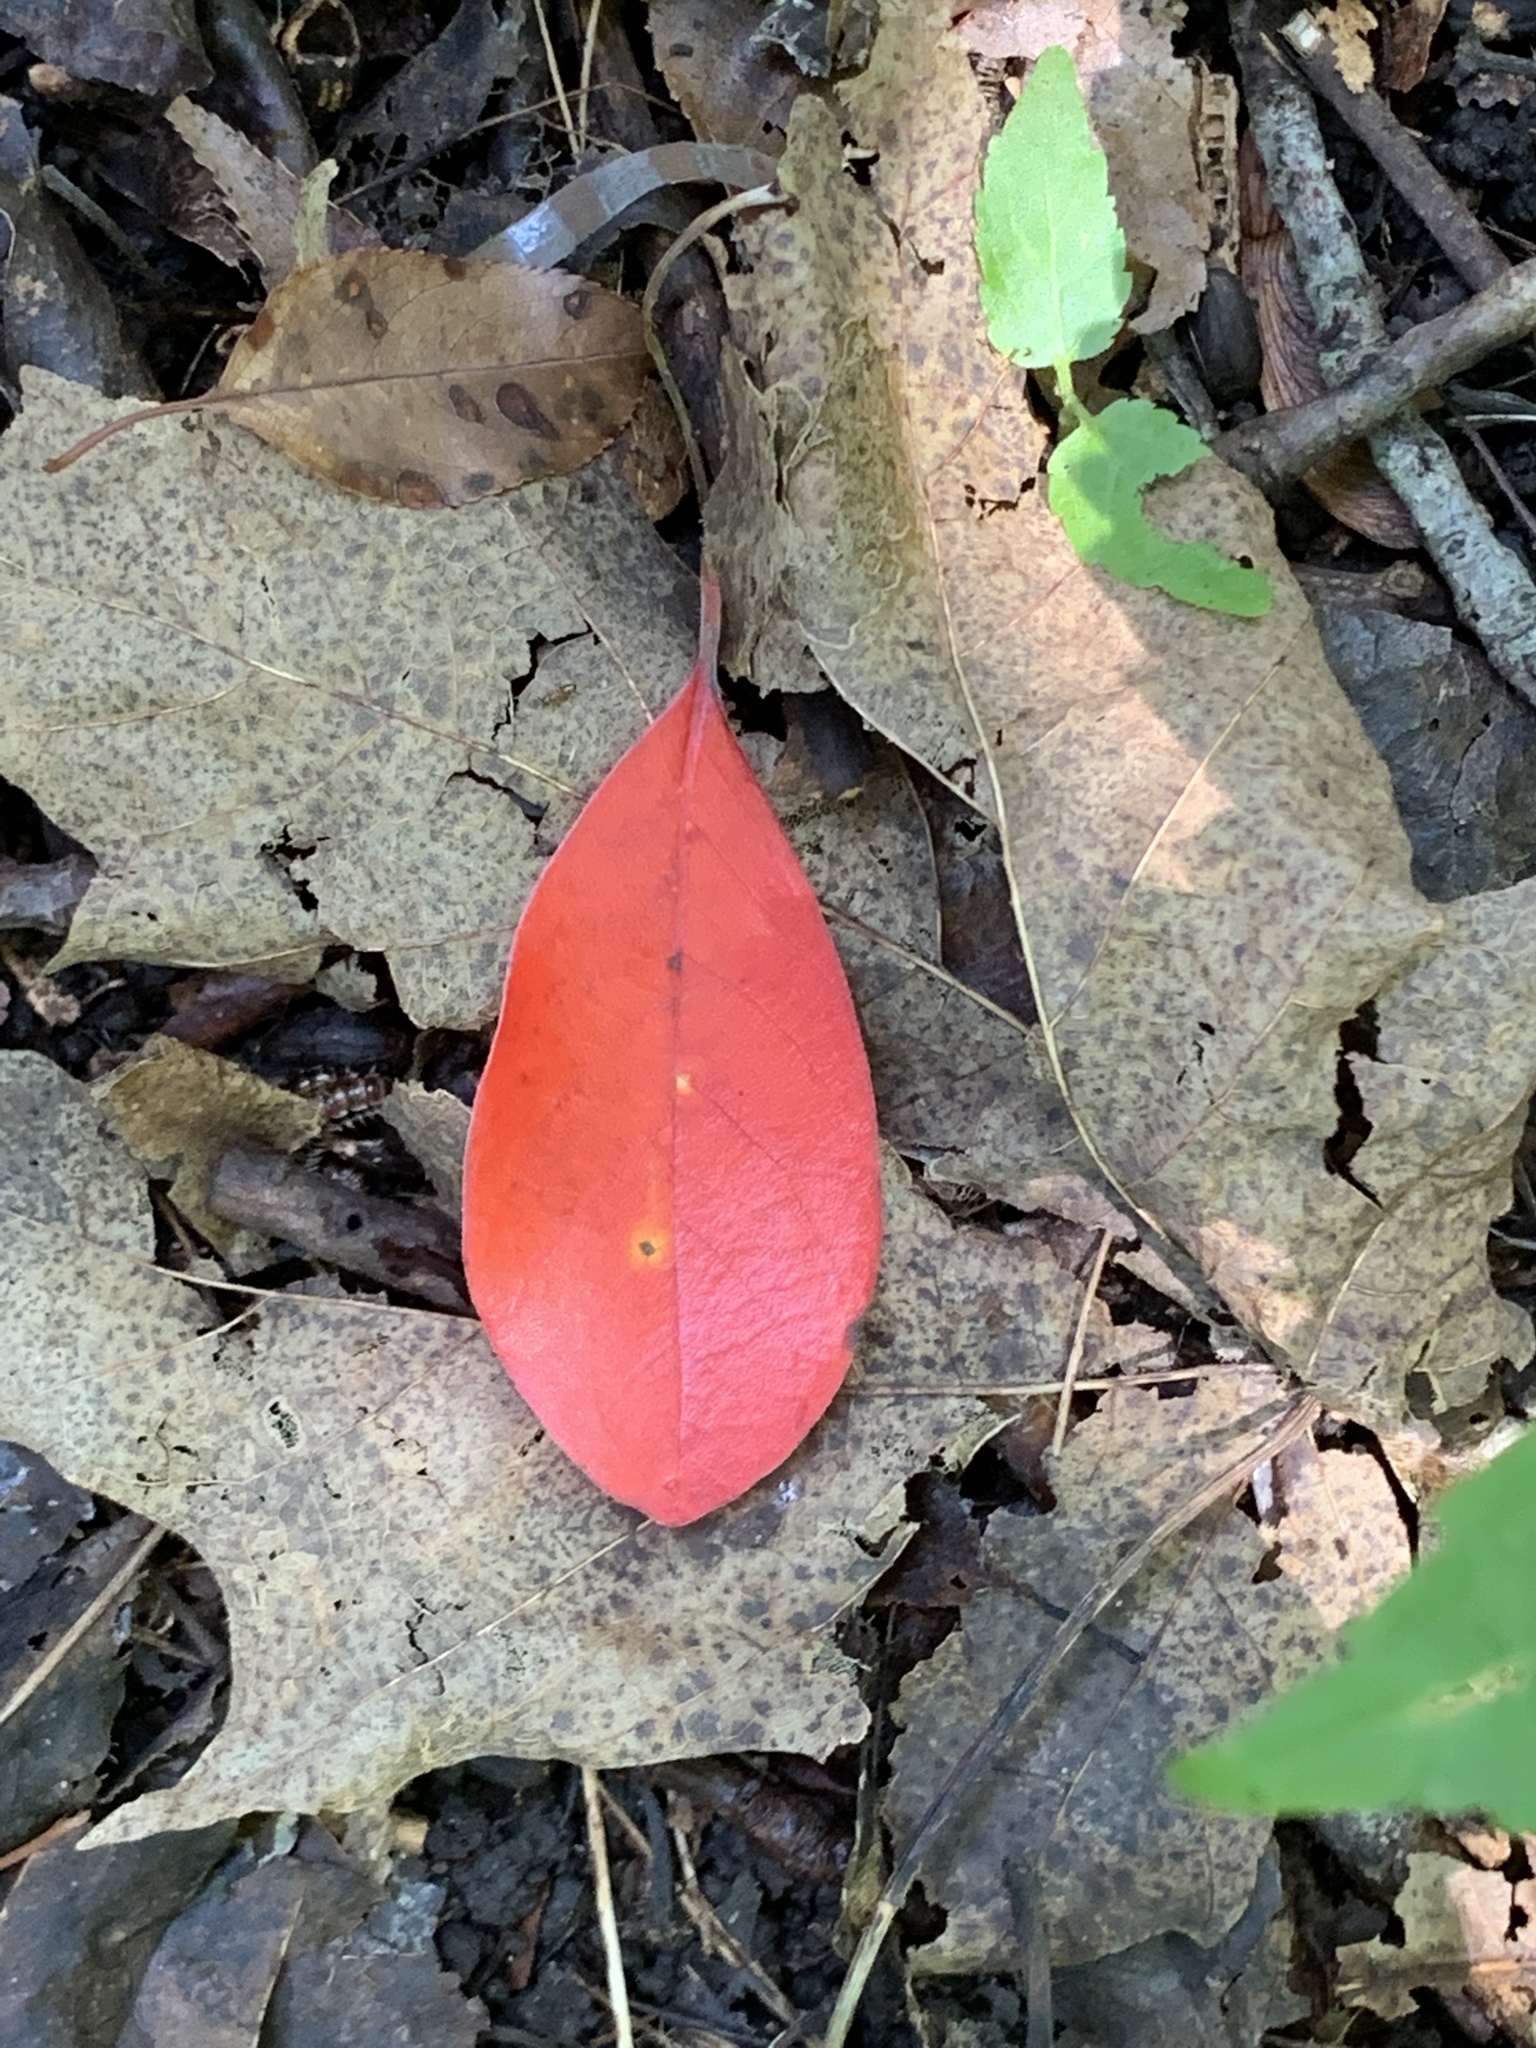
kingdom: Plantae
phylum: Tracheophyta
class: Magnoliopsida
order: Cornales
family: Nyssaceae
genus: Nyssa
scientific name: Nyssa sylvatica
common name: Black tupelo
